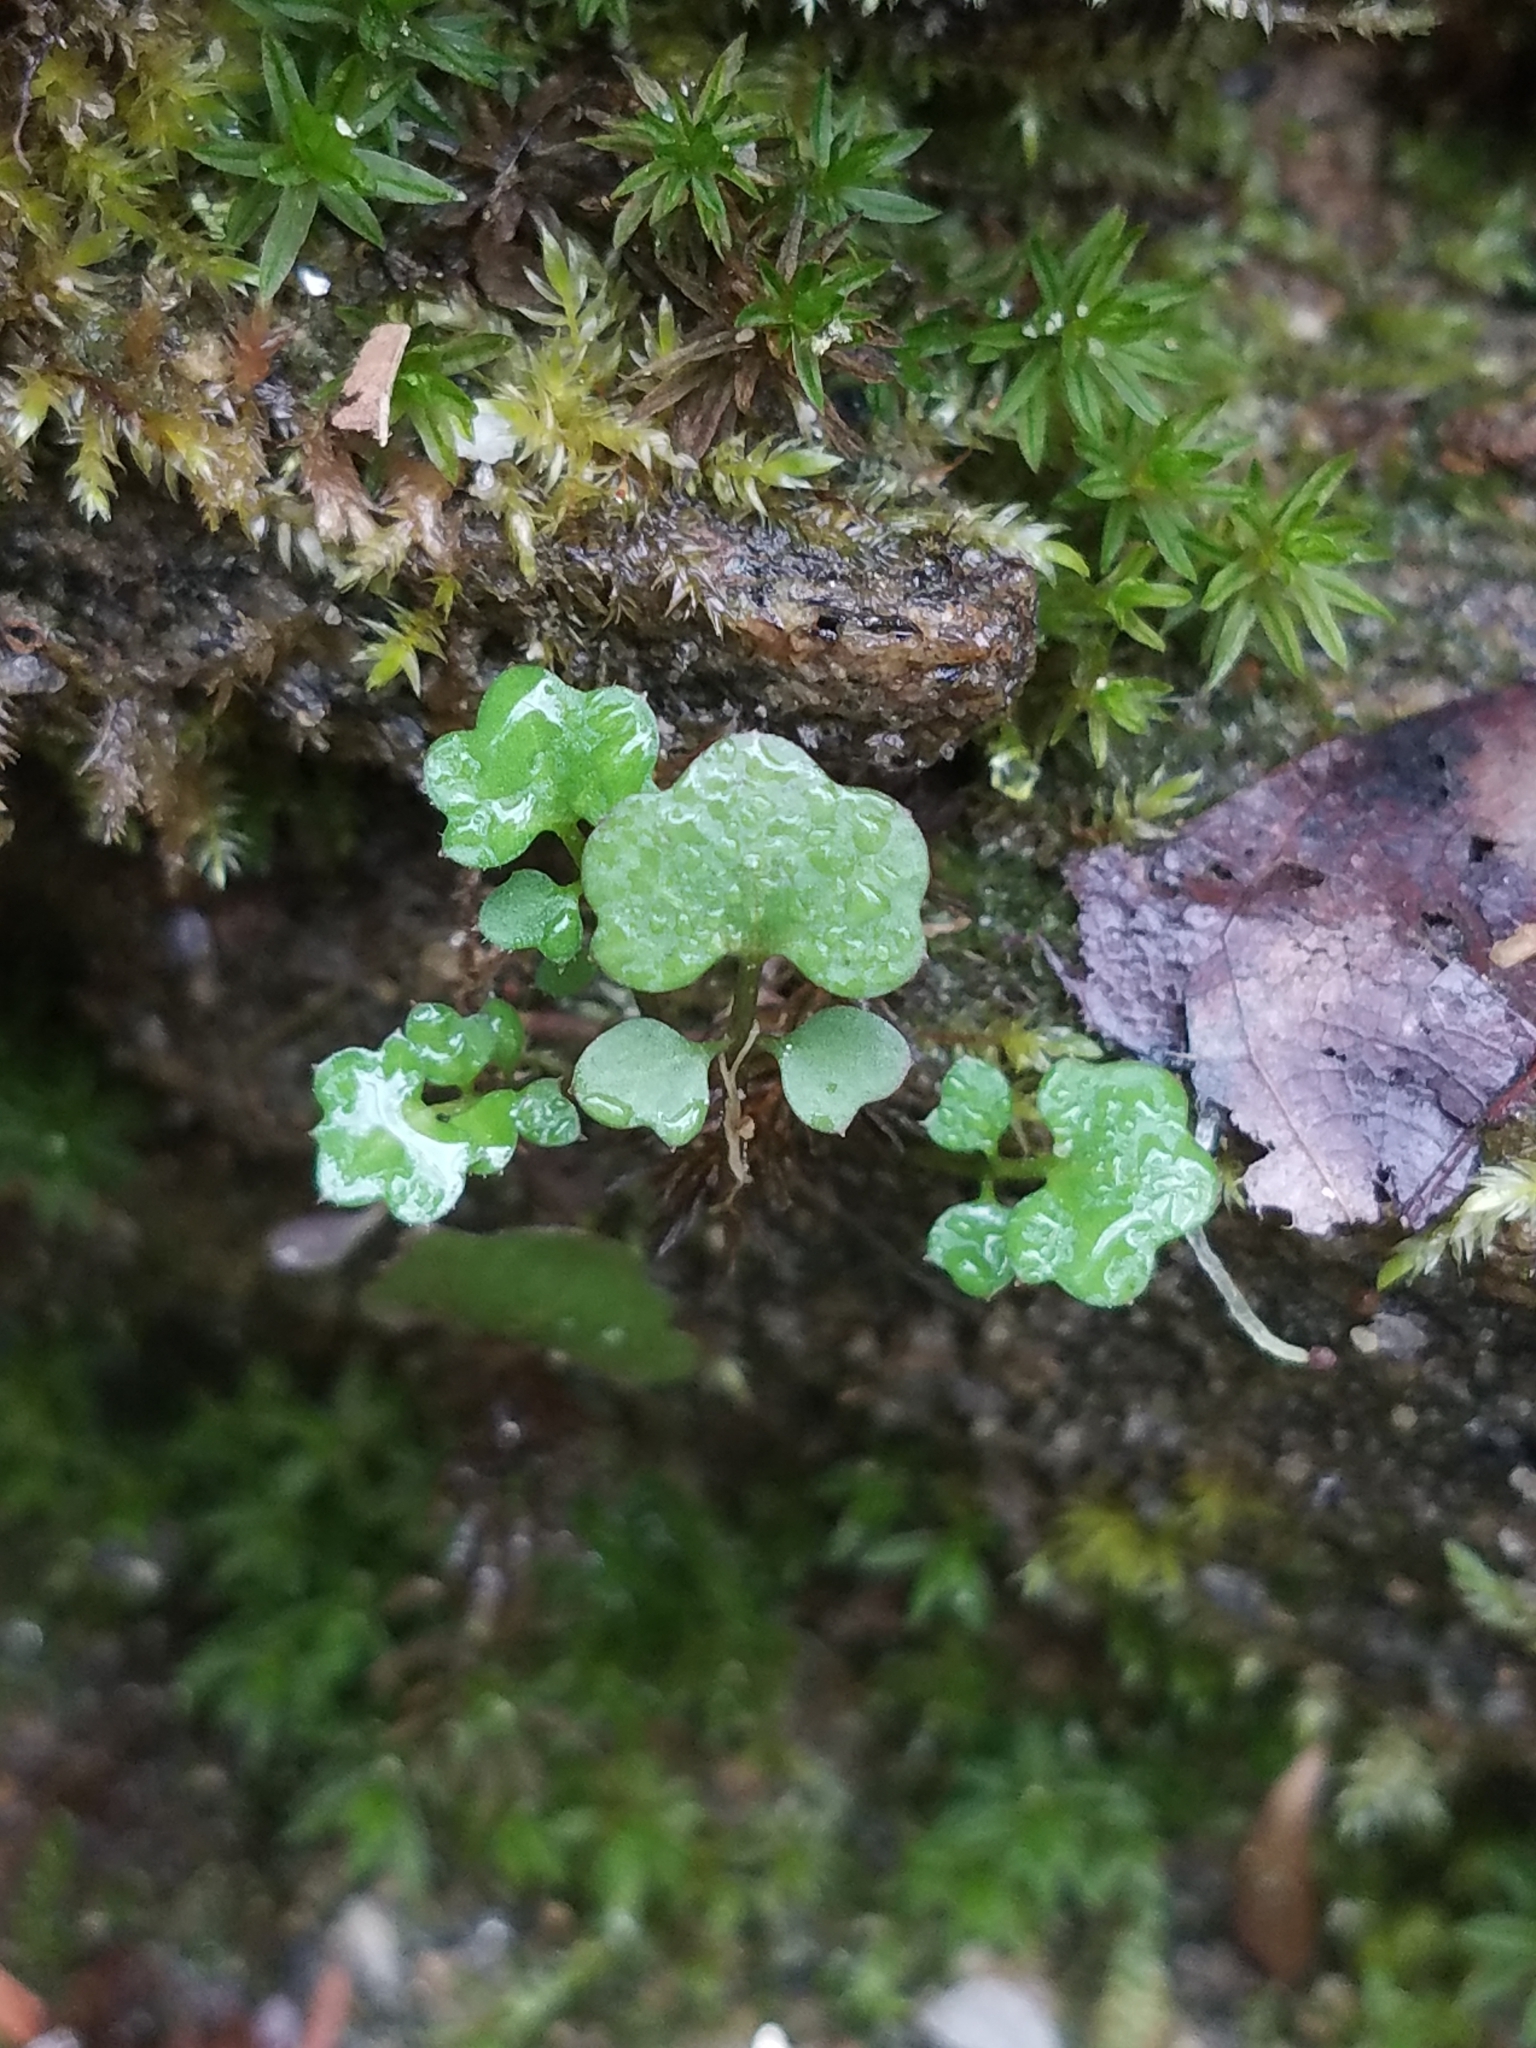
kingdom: Plantae
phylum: Tracheophyta
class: Magnoliopsida
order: Brassicales
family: Brassicaceae
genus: Cardamine
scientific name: Cardamine hirsuta
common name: Hairy bittercress
